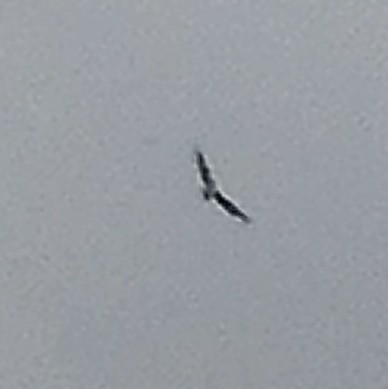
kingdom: Animalia
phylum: Chordata
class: Aves
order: Accipitriformes
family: Accipitridae
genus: Haliaeetus
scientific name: Haliaeetus leucogaster
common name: White-bellied sea eagle
